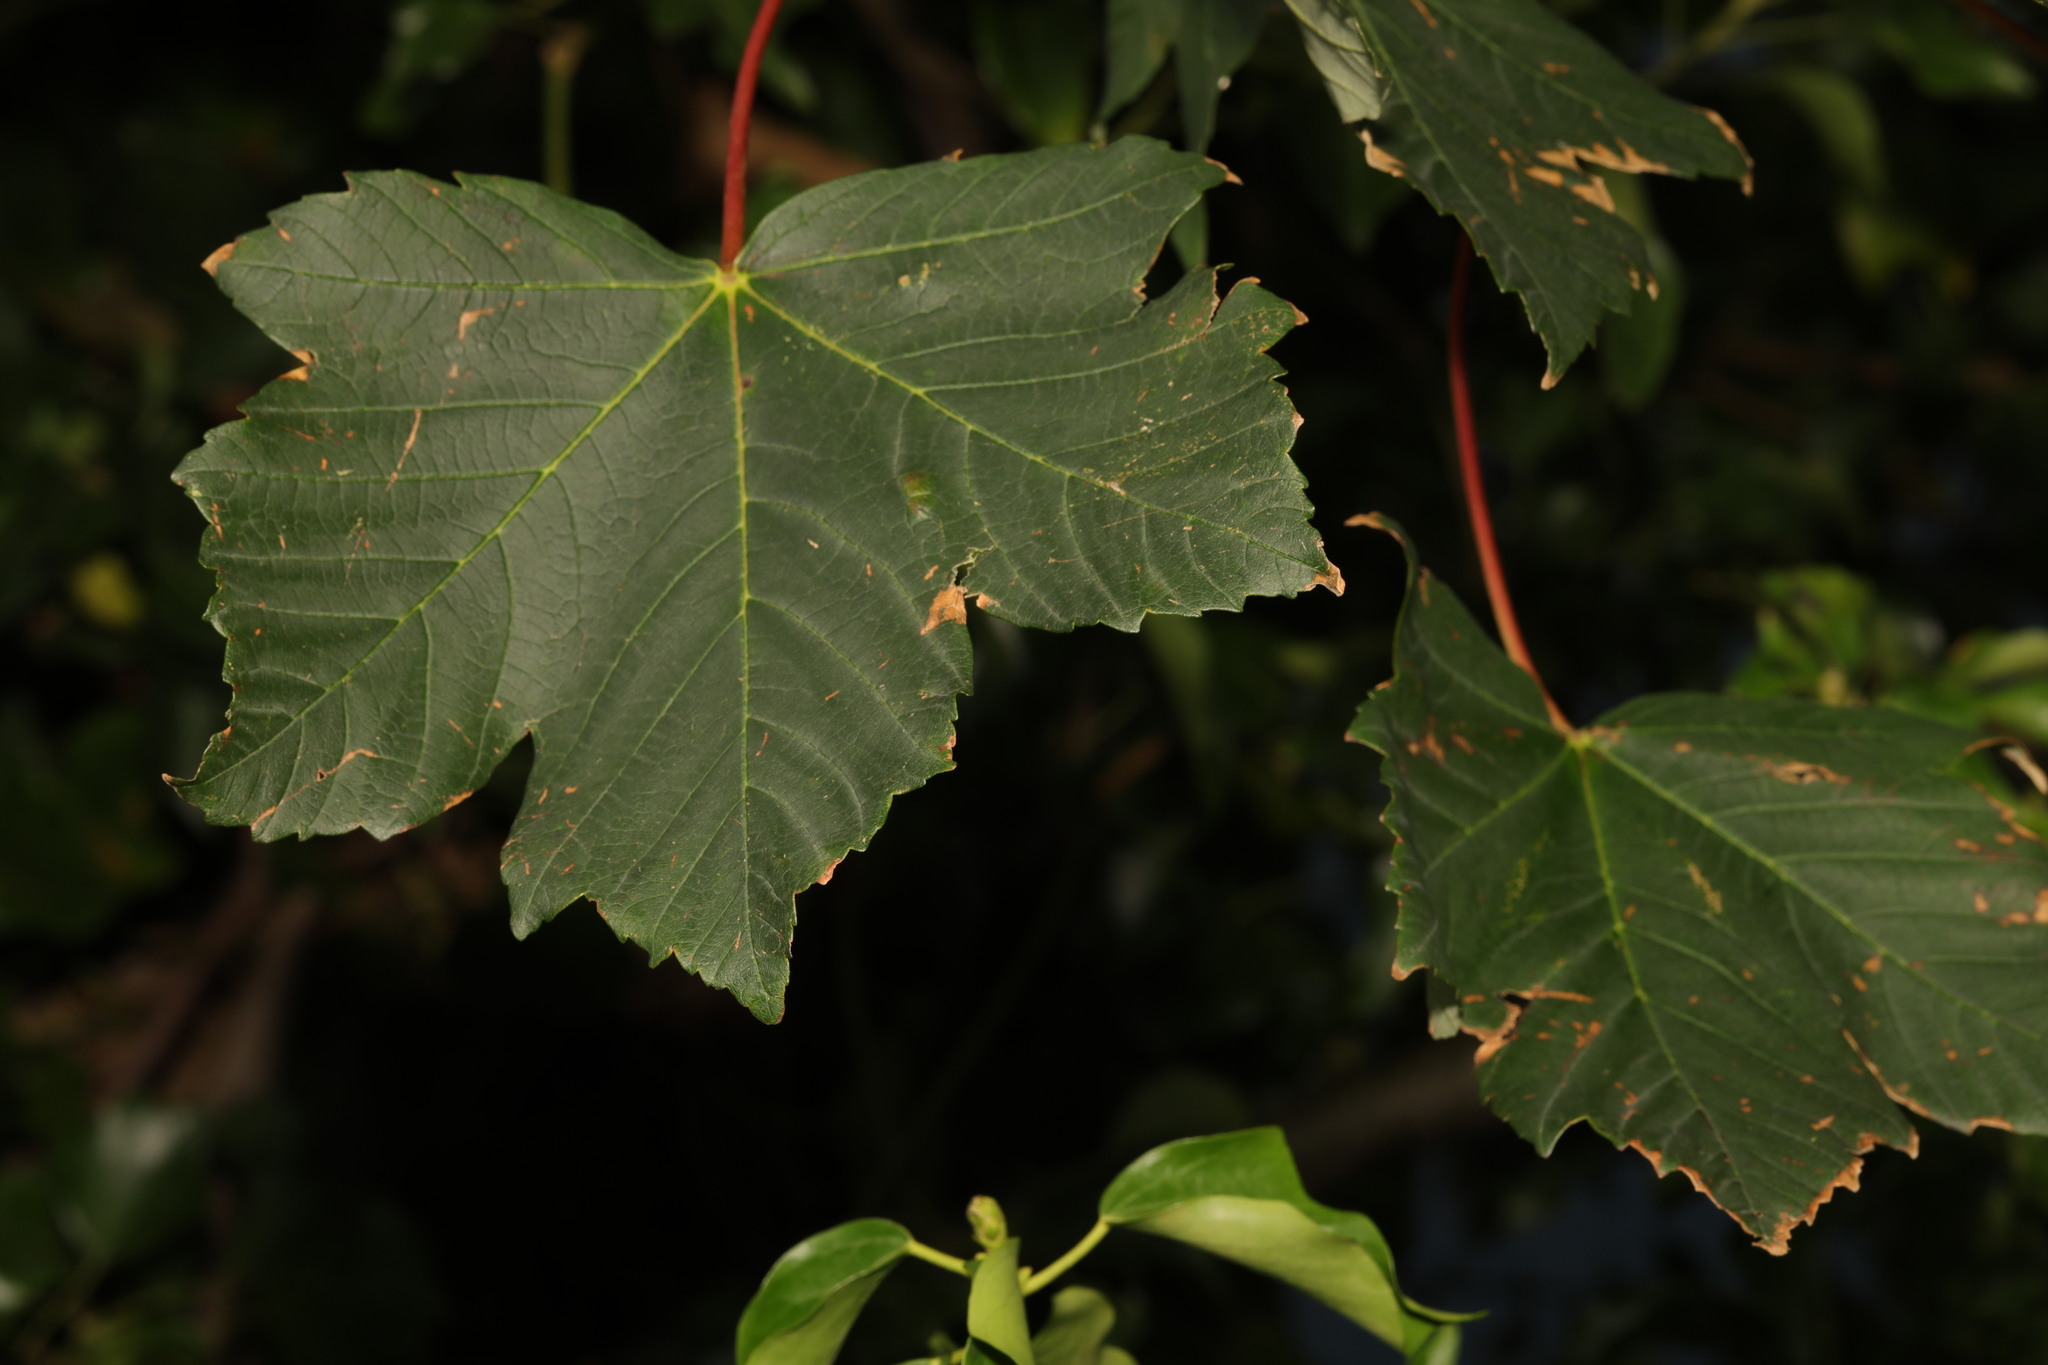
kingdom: Plantae
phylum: Tracheophyta
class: Magnoliopsida
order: Sapindales
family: Sapindaceae
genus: Acer
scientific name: Acer pseudoplatanus
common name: Sycamore
